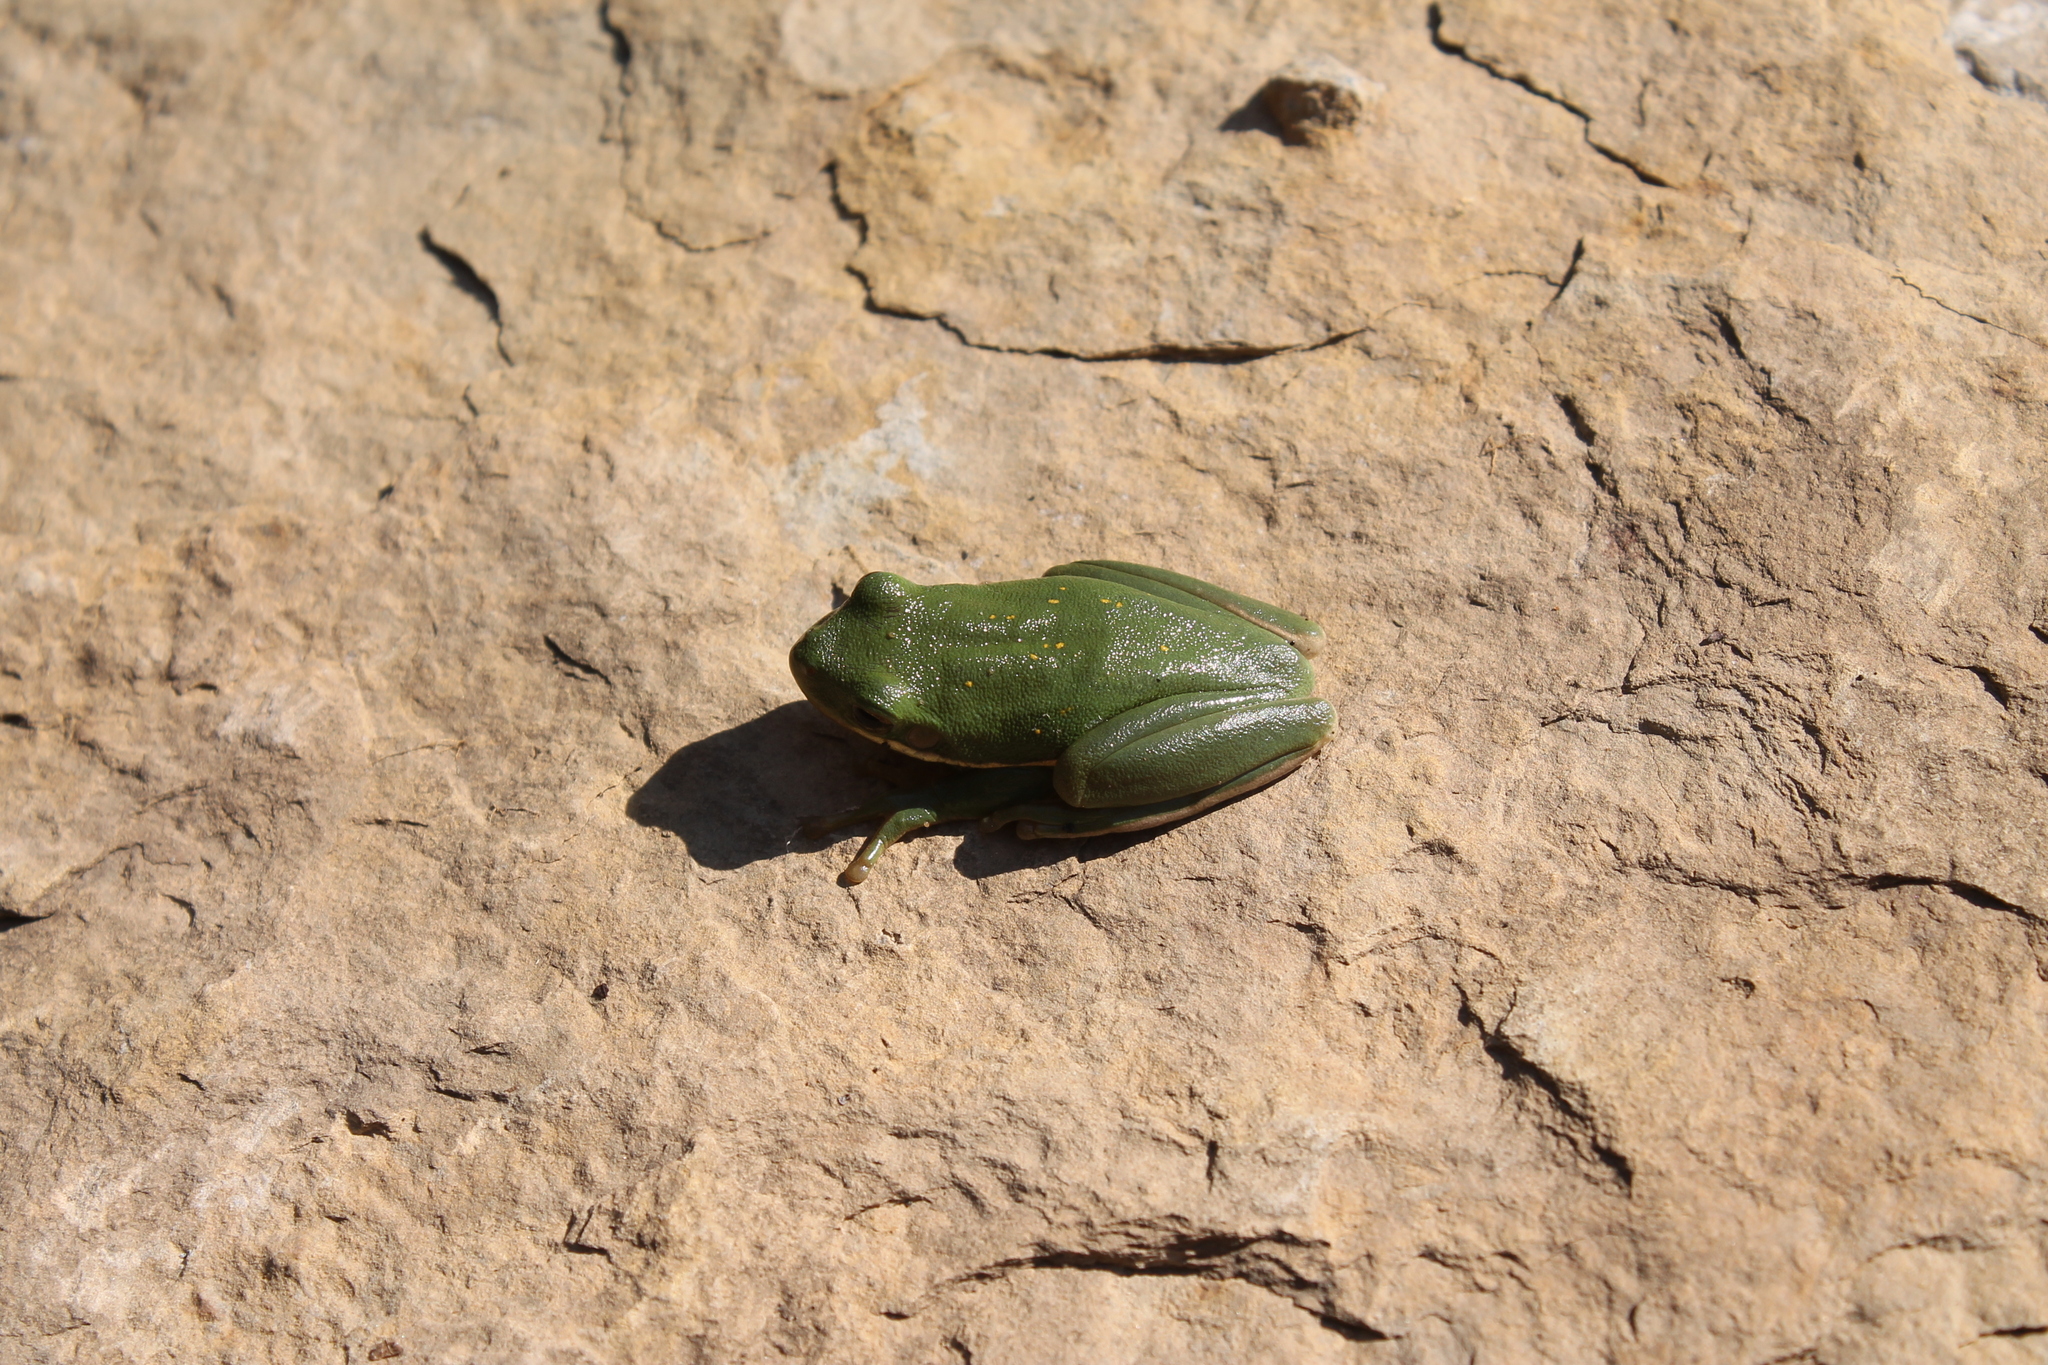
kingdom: Animalia
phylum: Chordata
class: Amphibia
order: Anura
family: Hylidae
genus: Dryophytes
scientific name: Dryophytes cinereus
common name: Green treefrog
